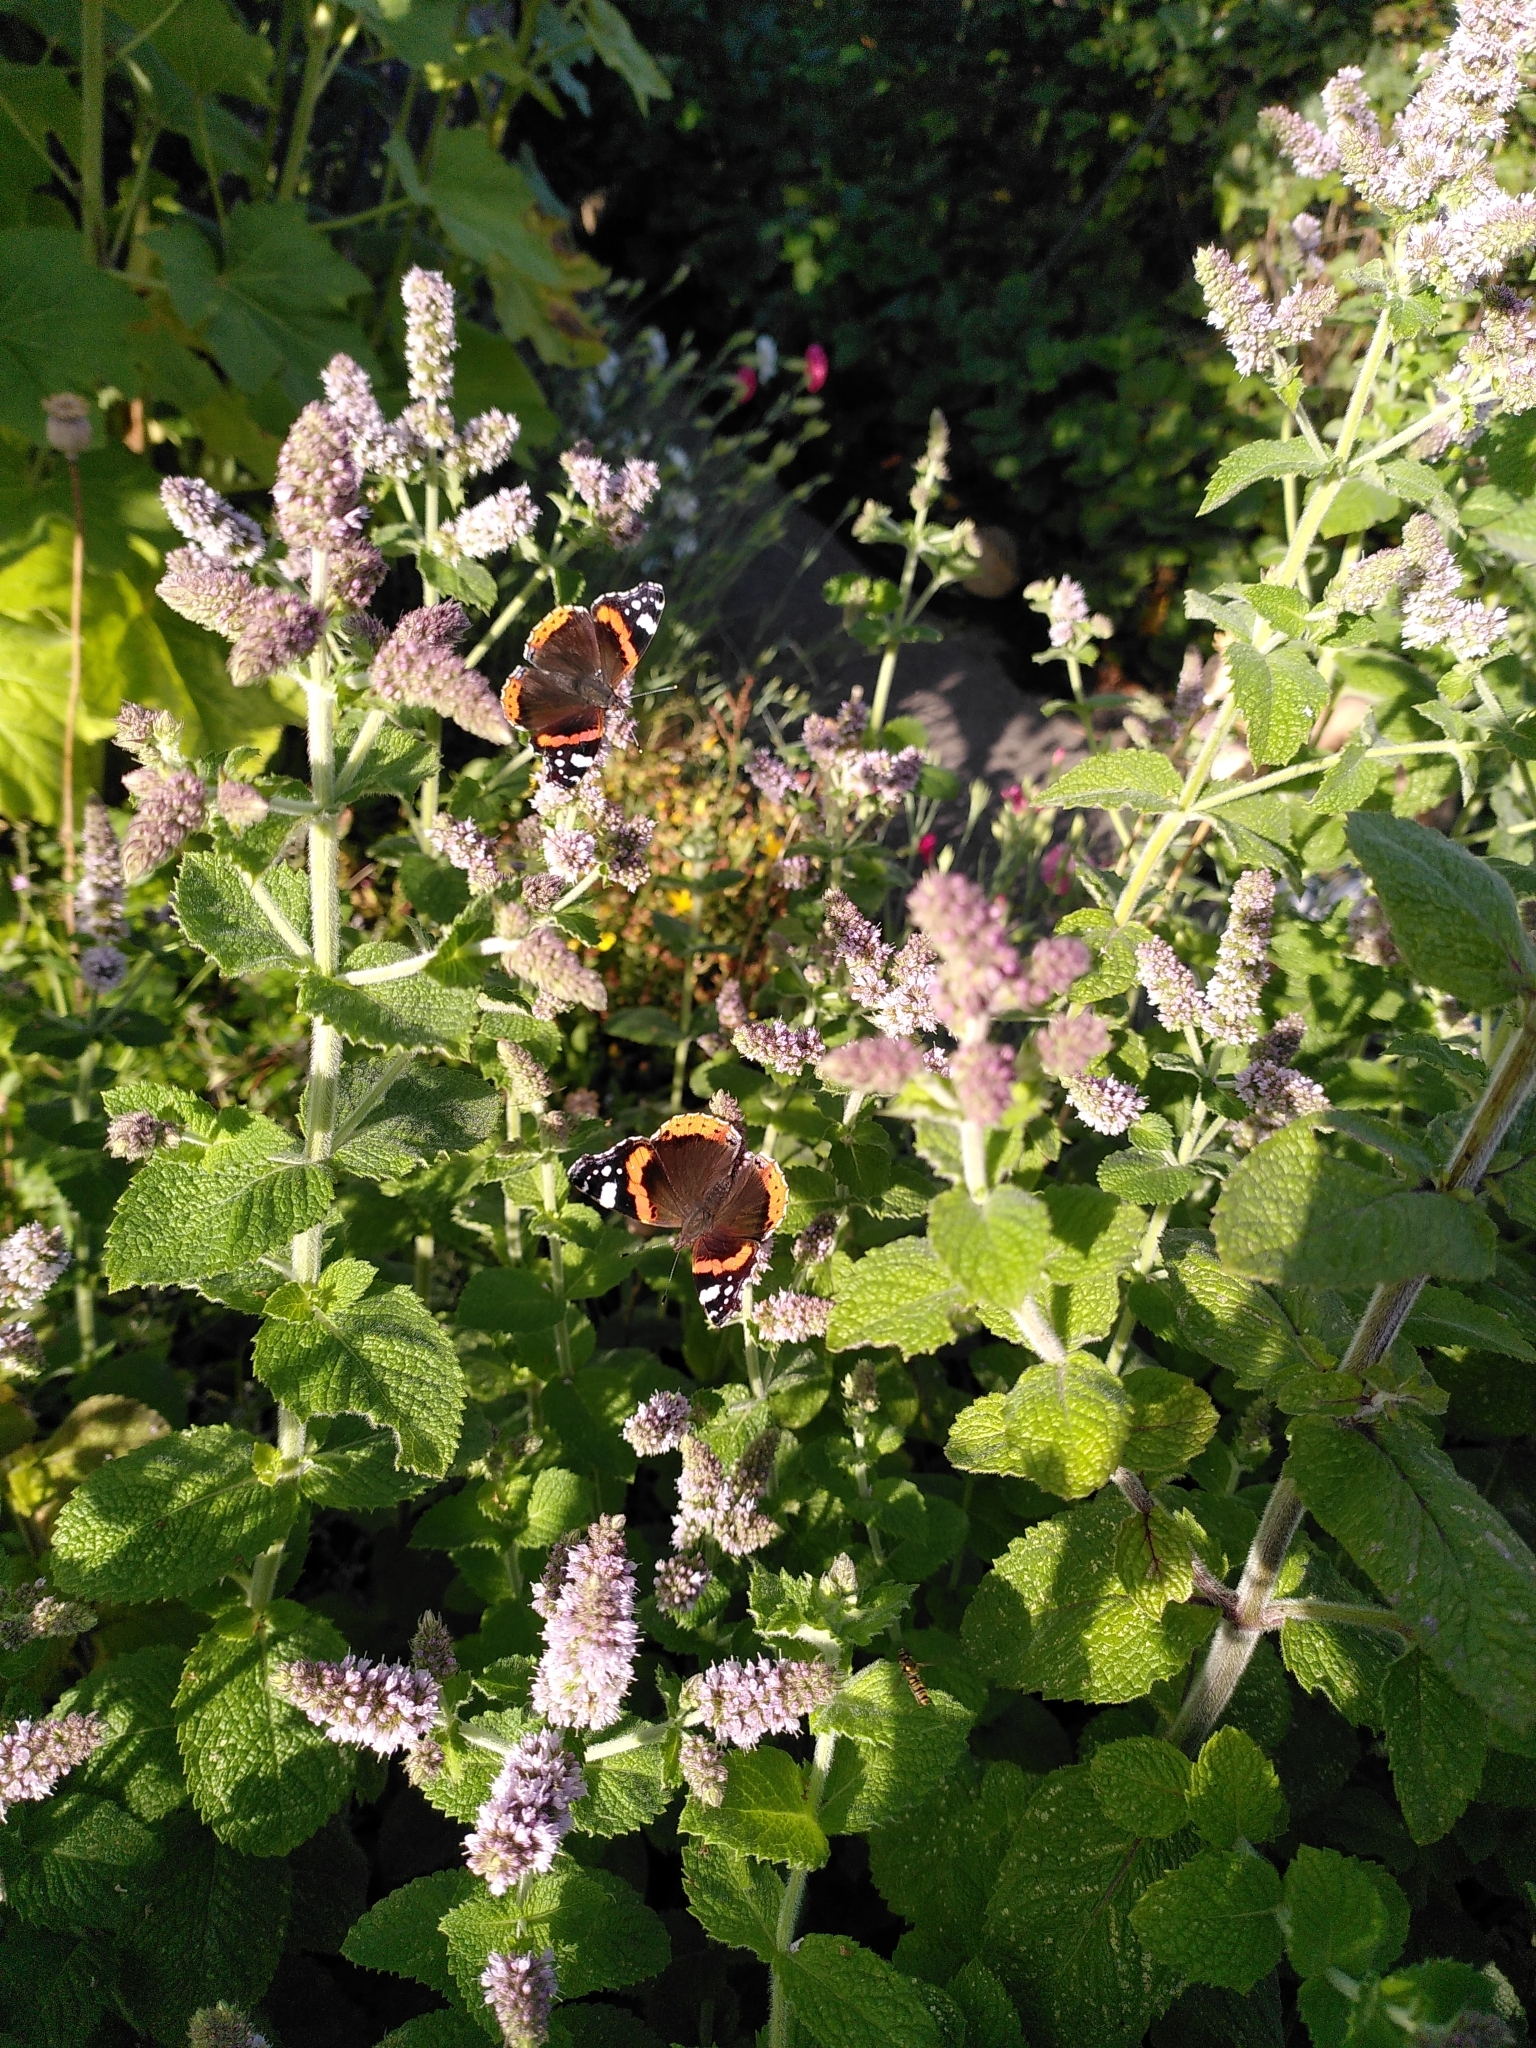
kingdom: Animalia
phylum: Arthropoda
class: Insecta
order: Lepidoptera
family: Nymphalidae
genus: Vanessa
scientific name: Vanessa atalanta
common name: Red admiral
